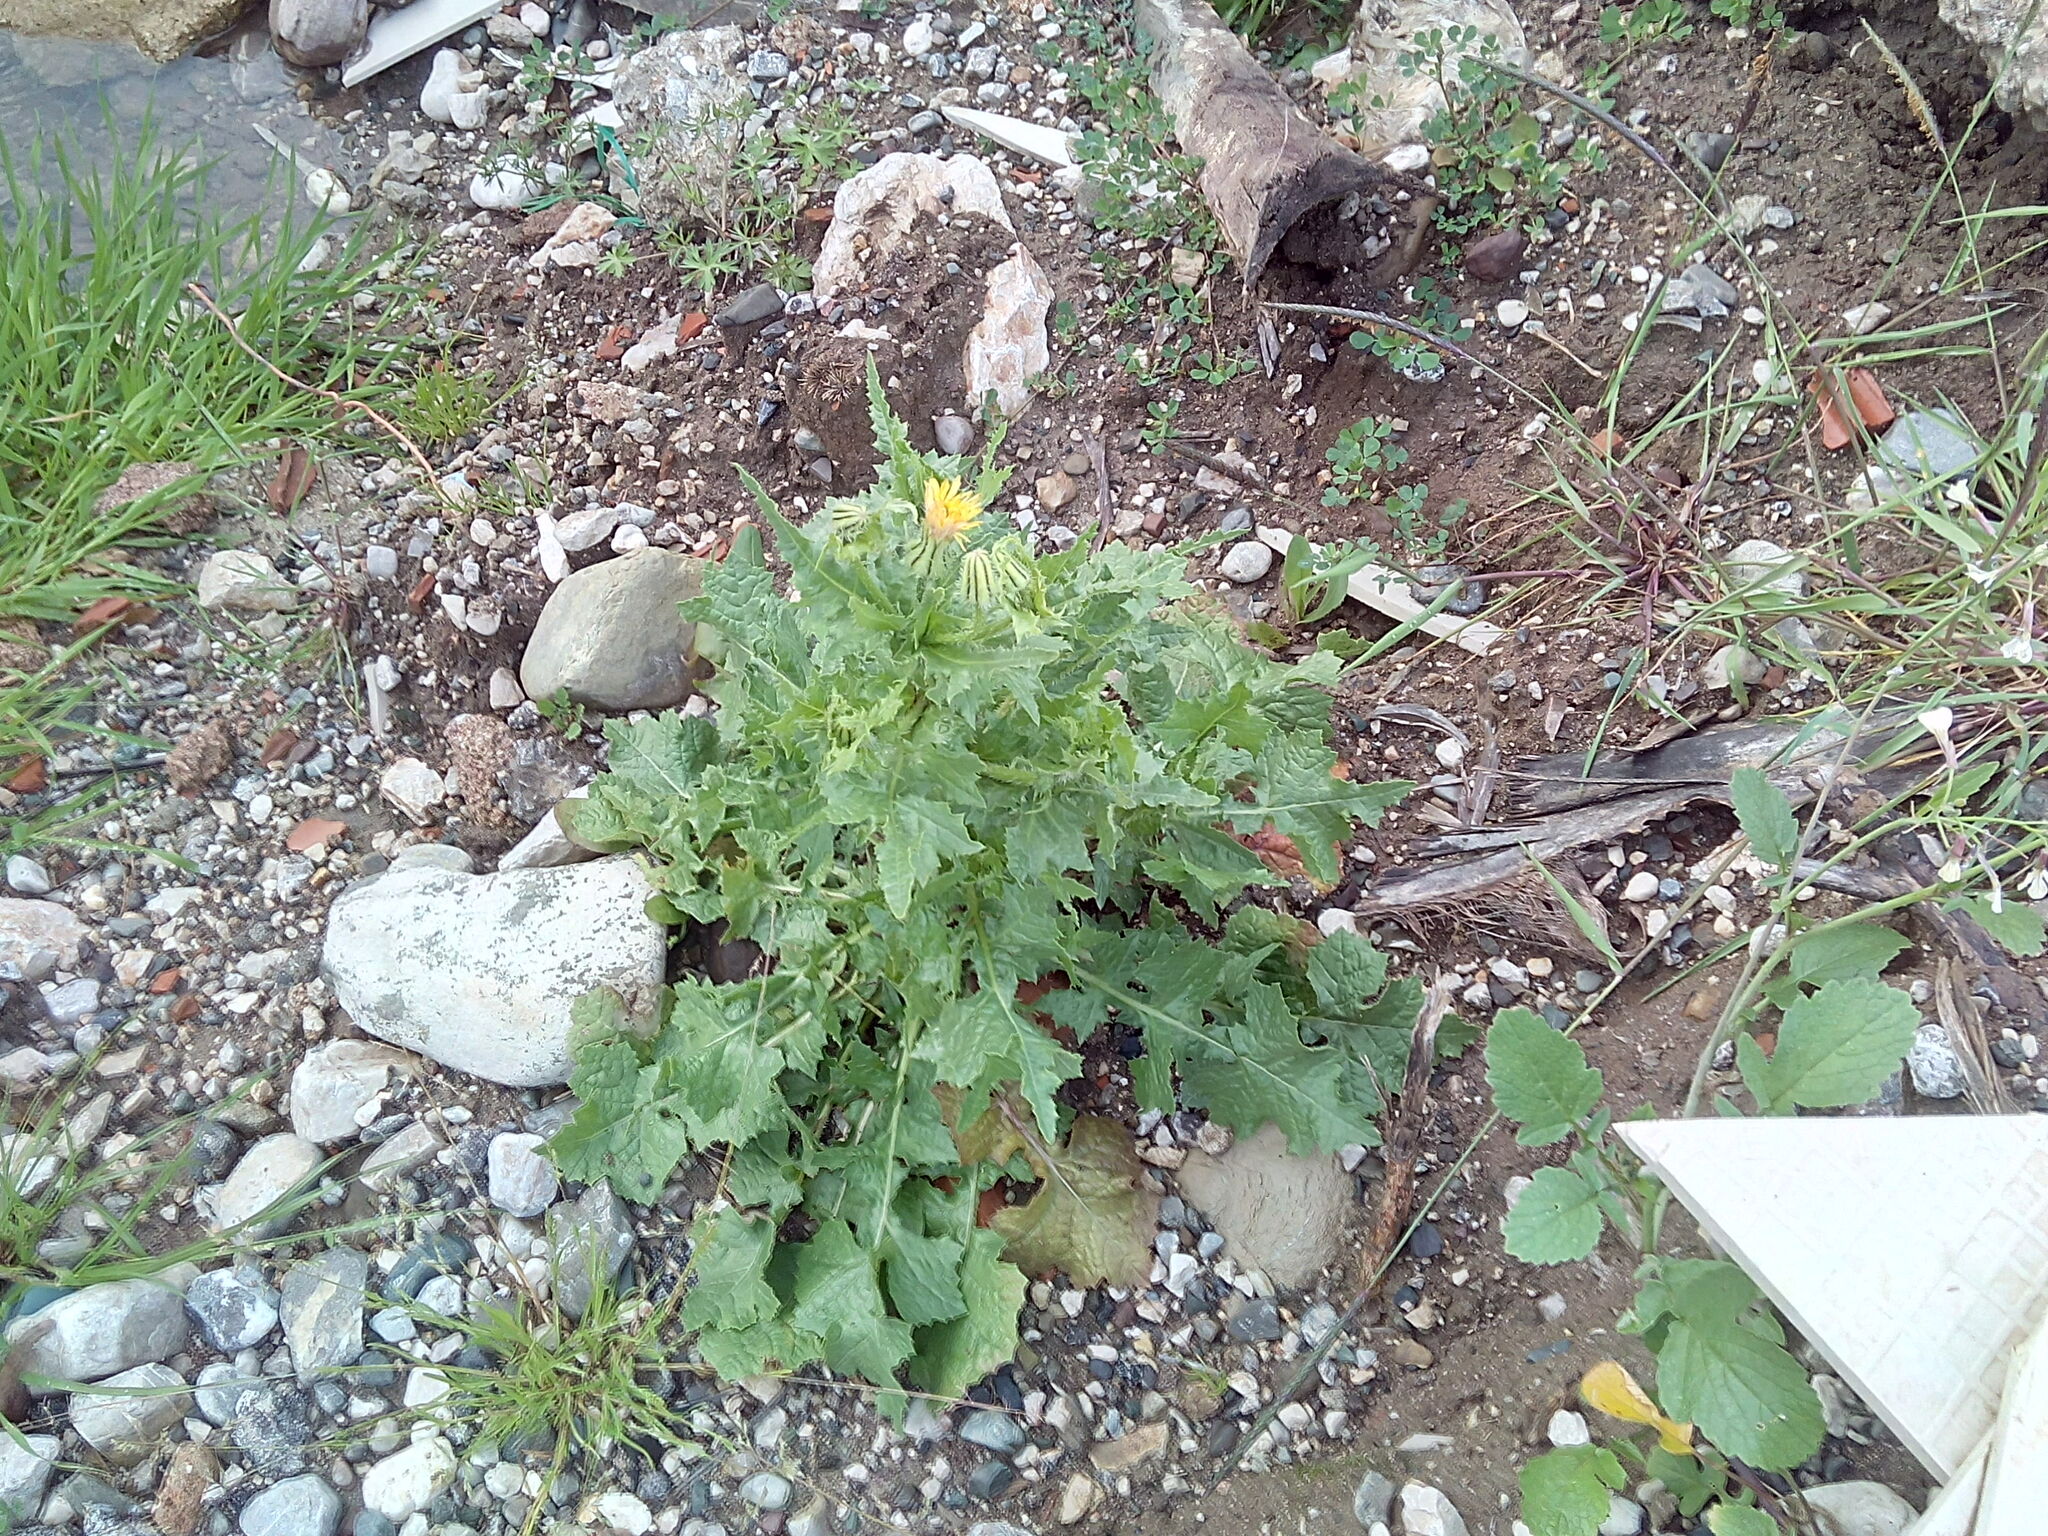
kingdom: Plantae
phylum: Tracheophyta
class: Magnoliopsida
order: Asterales
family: Asteraceae
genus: Urospermum
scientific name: Urospermum picroides
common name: False hawkbit
